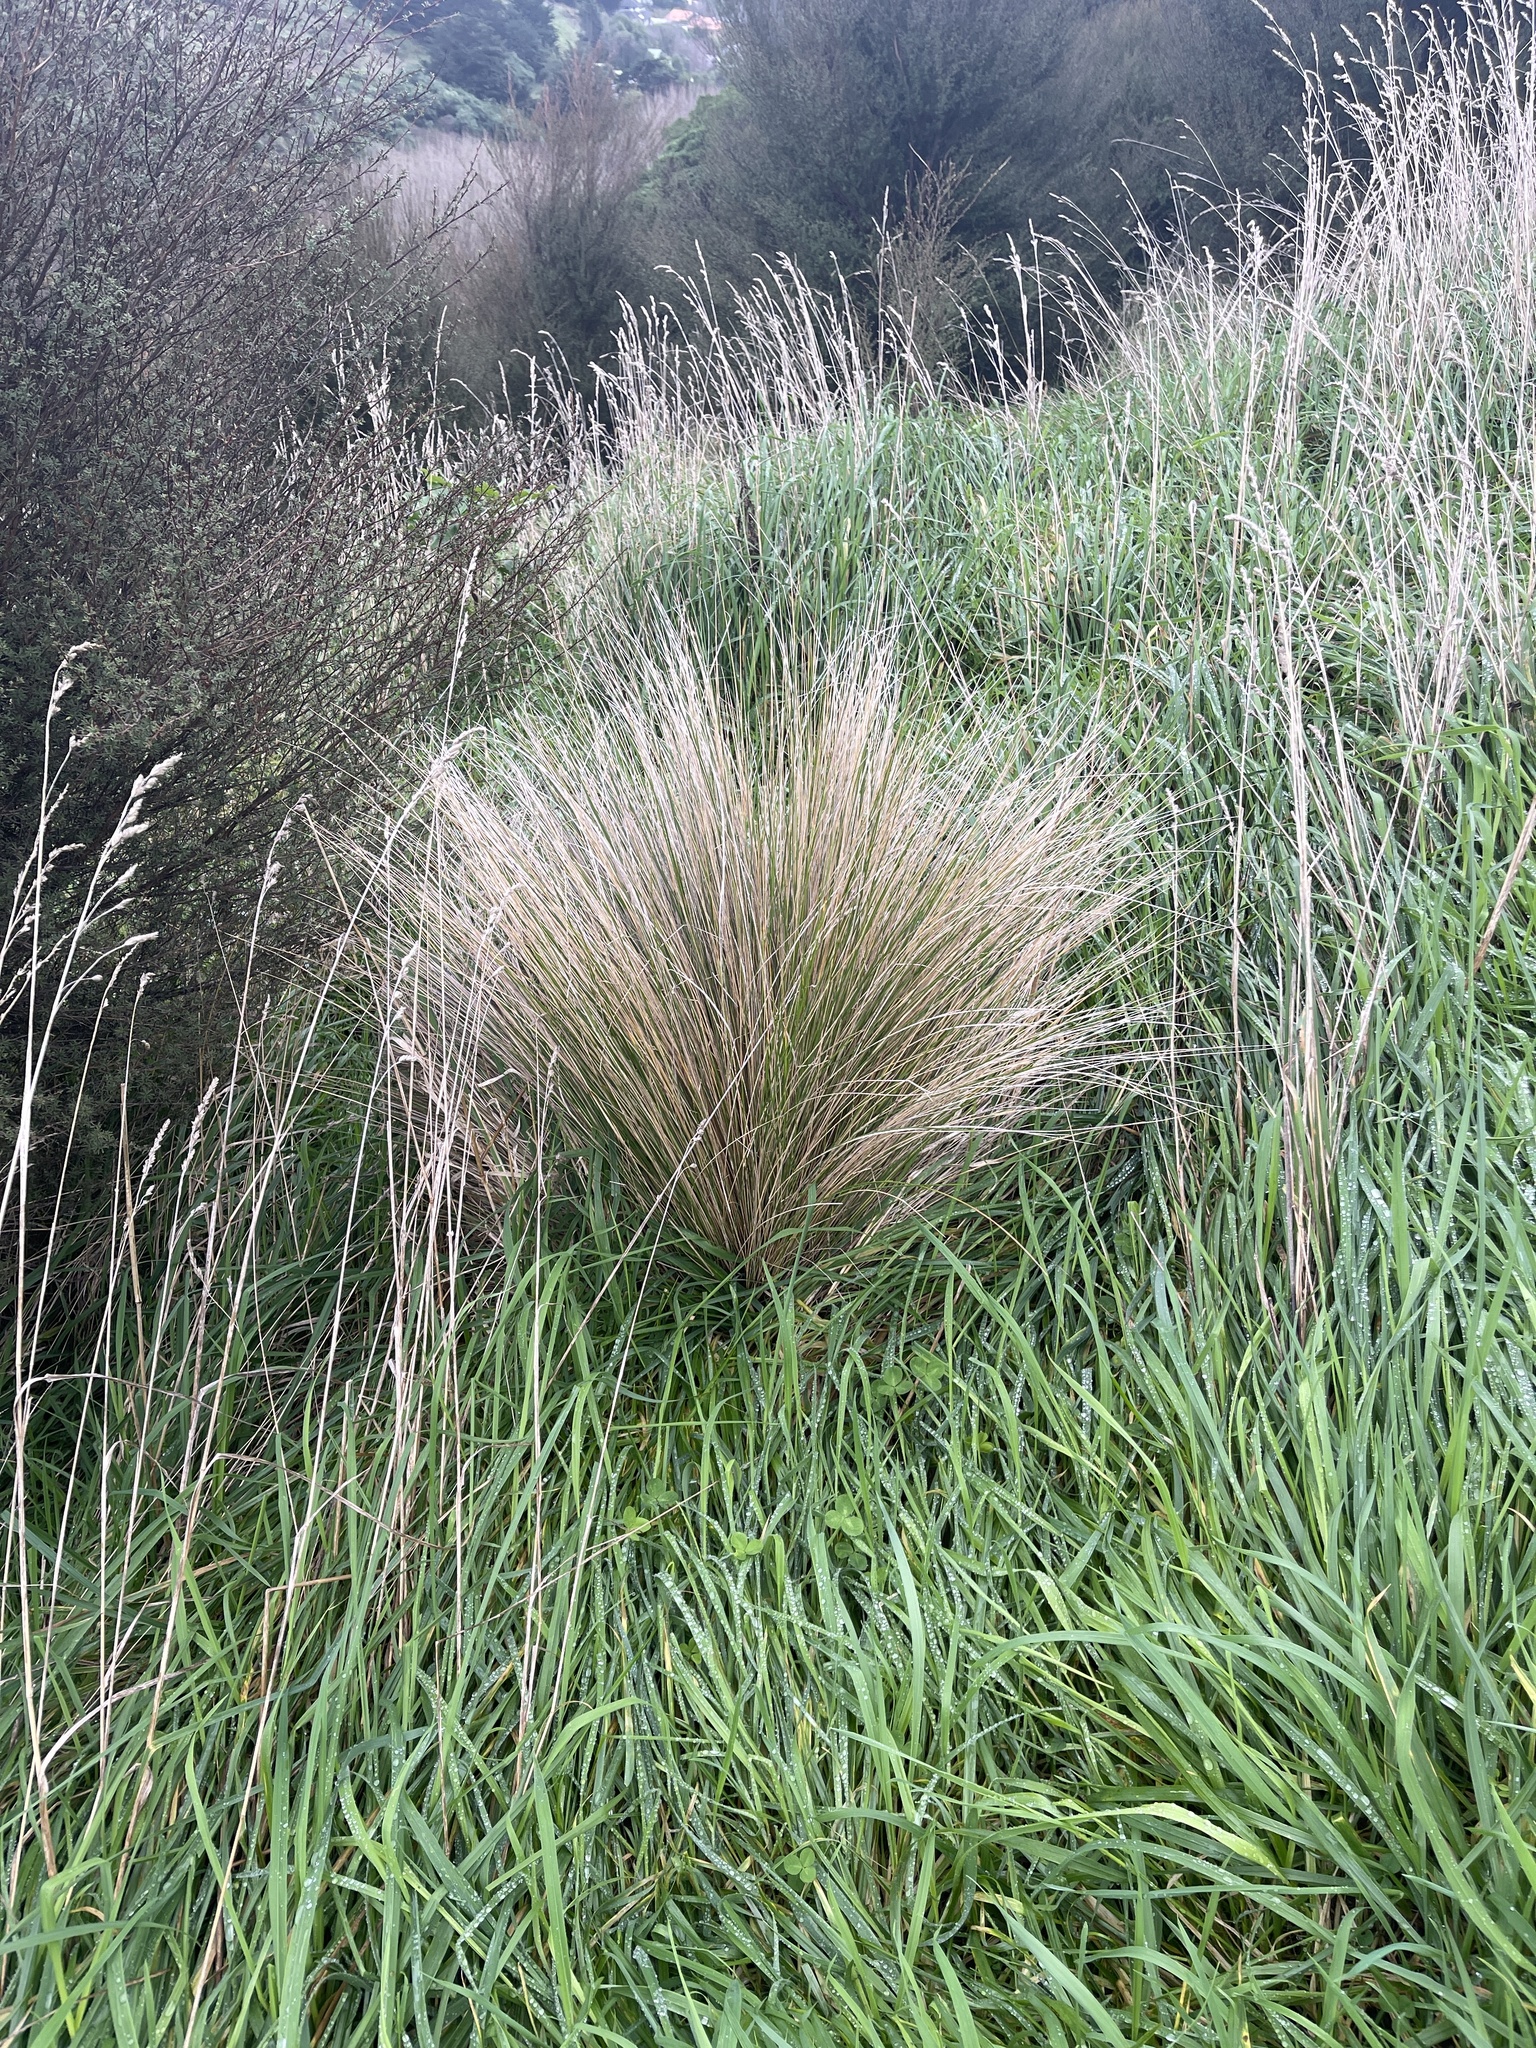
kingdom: Plantae
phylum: Tracheophyta
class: Liliopsida
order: Poales
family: Poaceae
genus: Poa
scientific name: Poa cita
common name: Silver tussock
